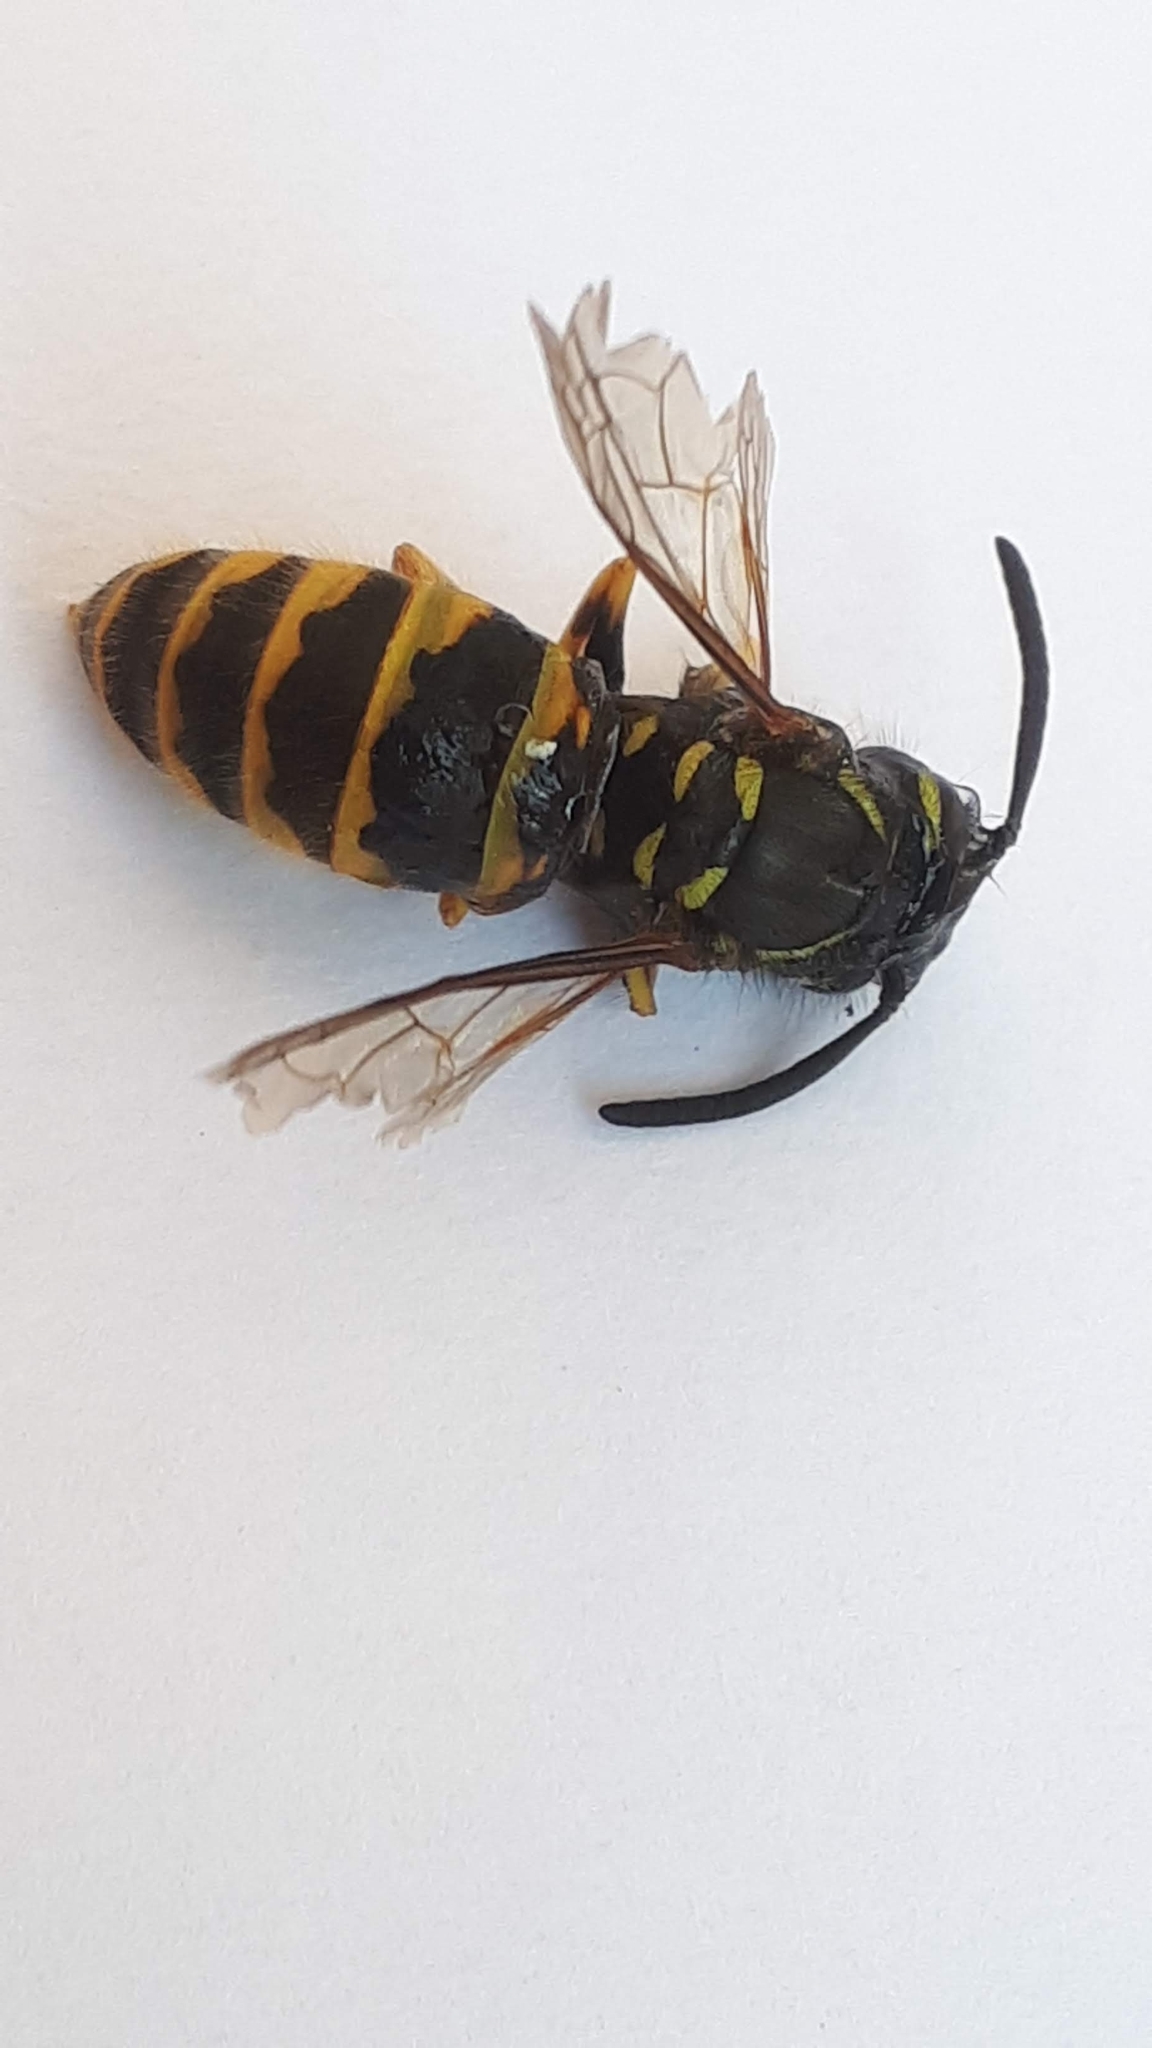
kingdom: Animalia
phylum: Arthropoda
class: Insecta
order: Hymenoptera
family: Vespidae
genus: Vespula
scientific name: Vespula vulgaris
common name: Common wasp
